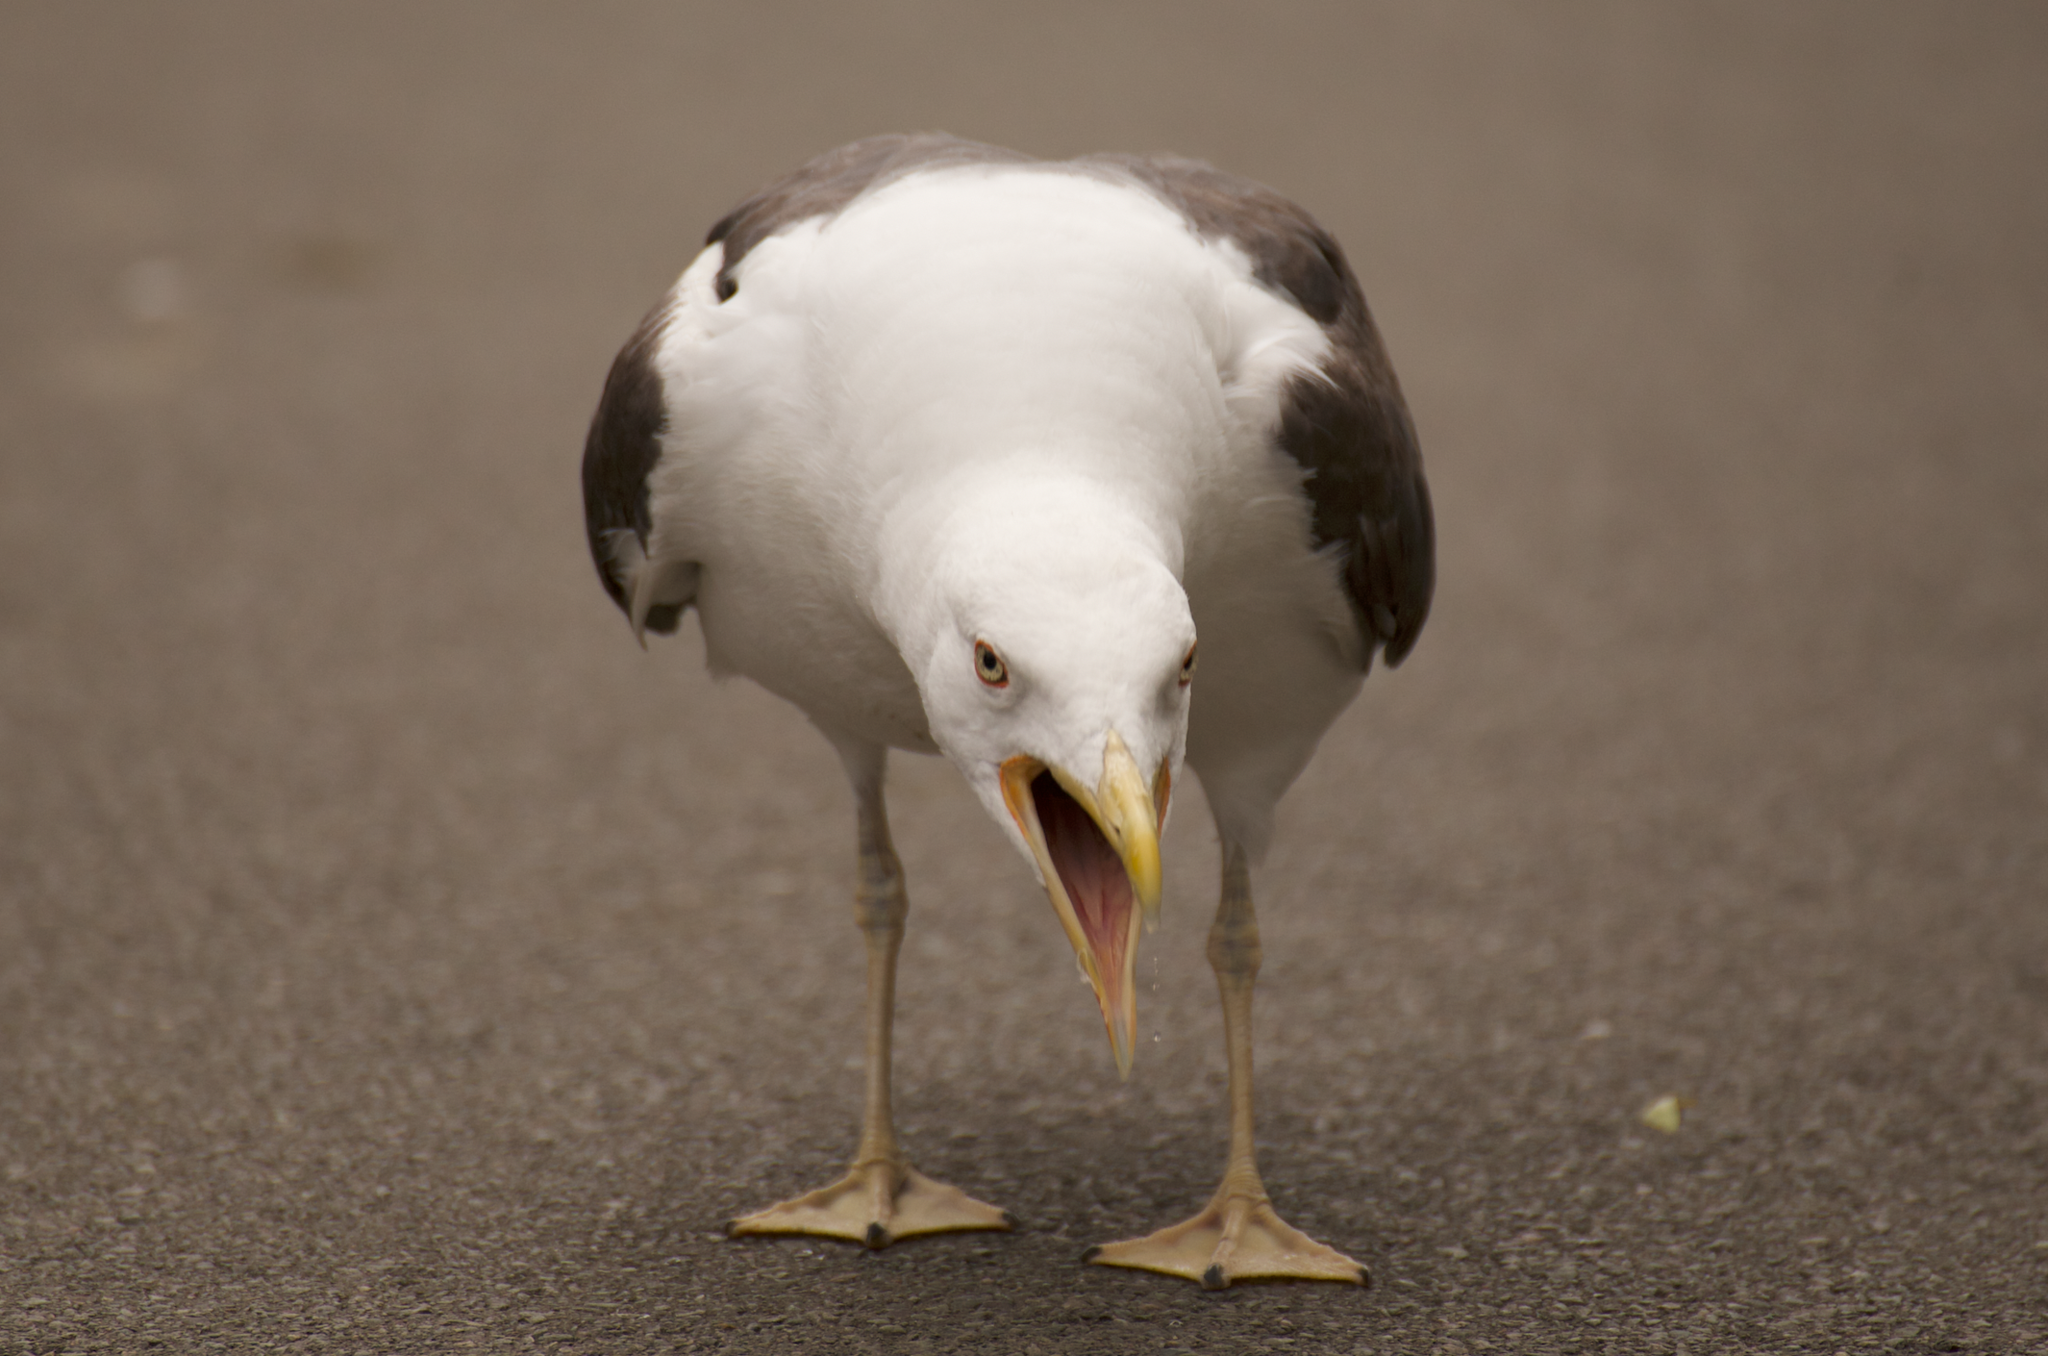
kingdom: Animalia
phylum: Chordata
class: Aves
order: Charadriiformes
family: Laridae
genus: Larus
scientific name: Larus fuscus
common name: Lesser black-backed gull
